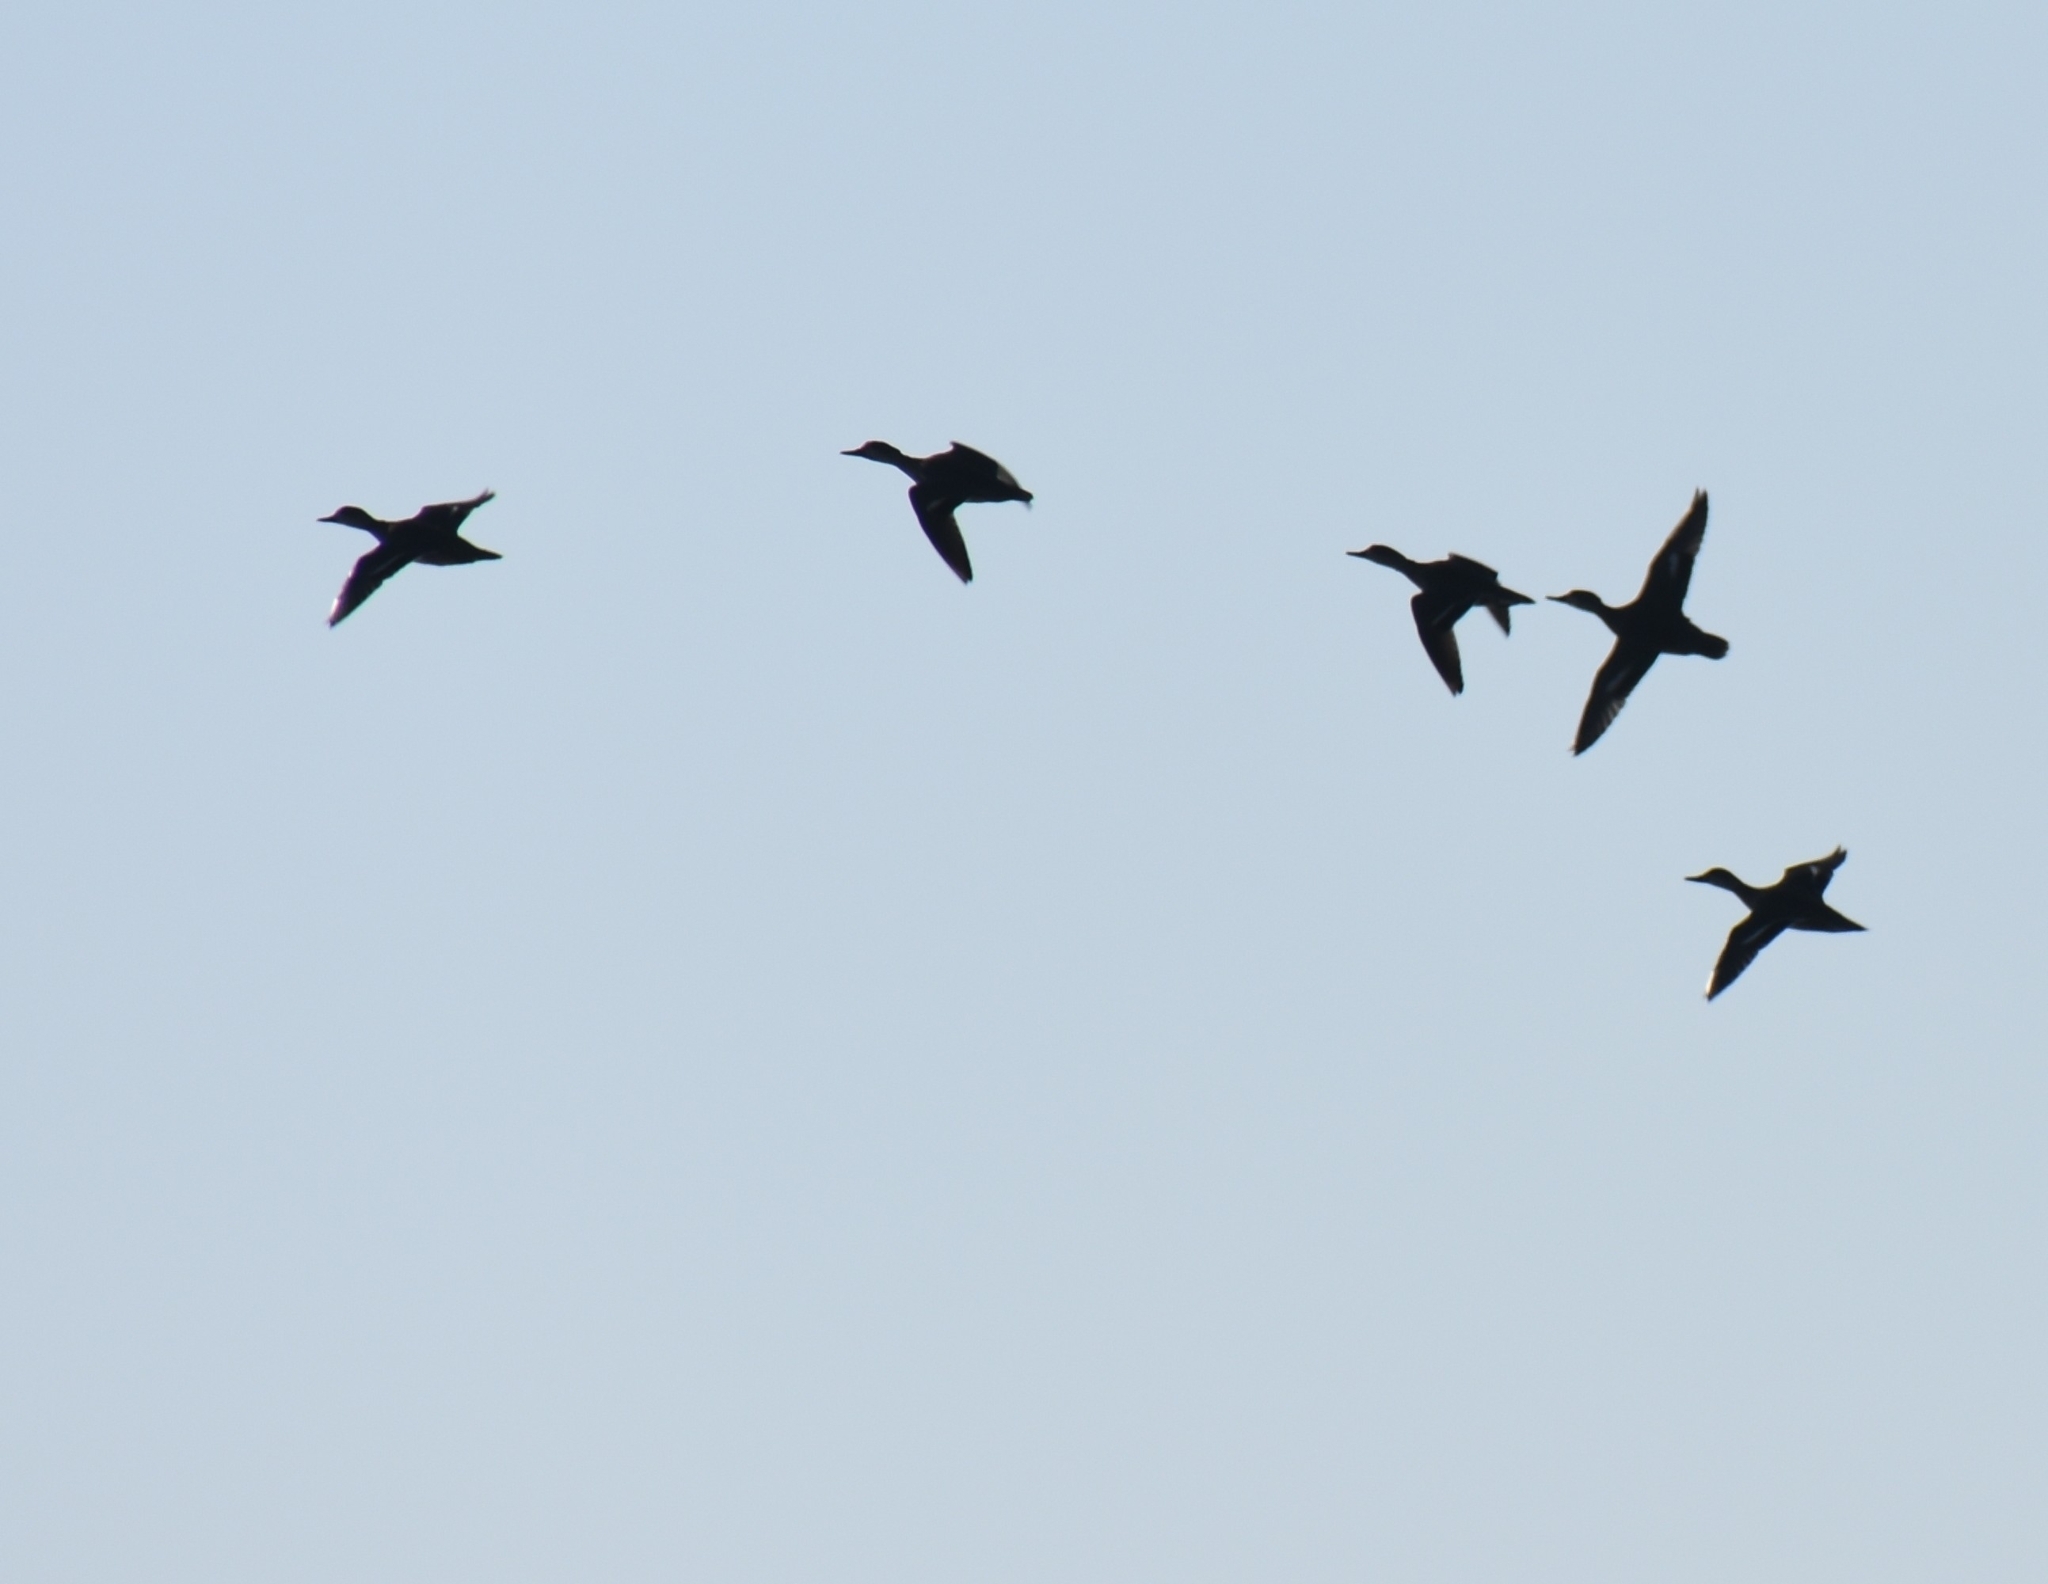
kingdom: Animalia
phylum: Chordata
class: Aves
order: Anseriformes
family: Anatidae
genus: Anas
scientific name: Anas crecca
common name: Eurasian teal
